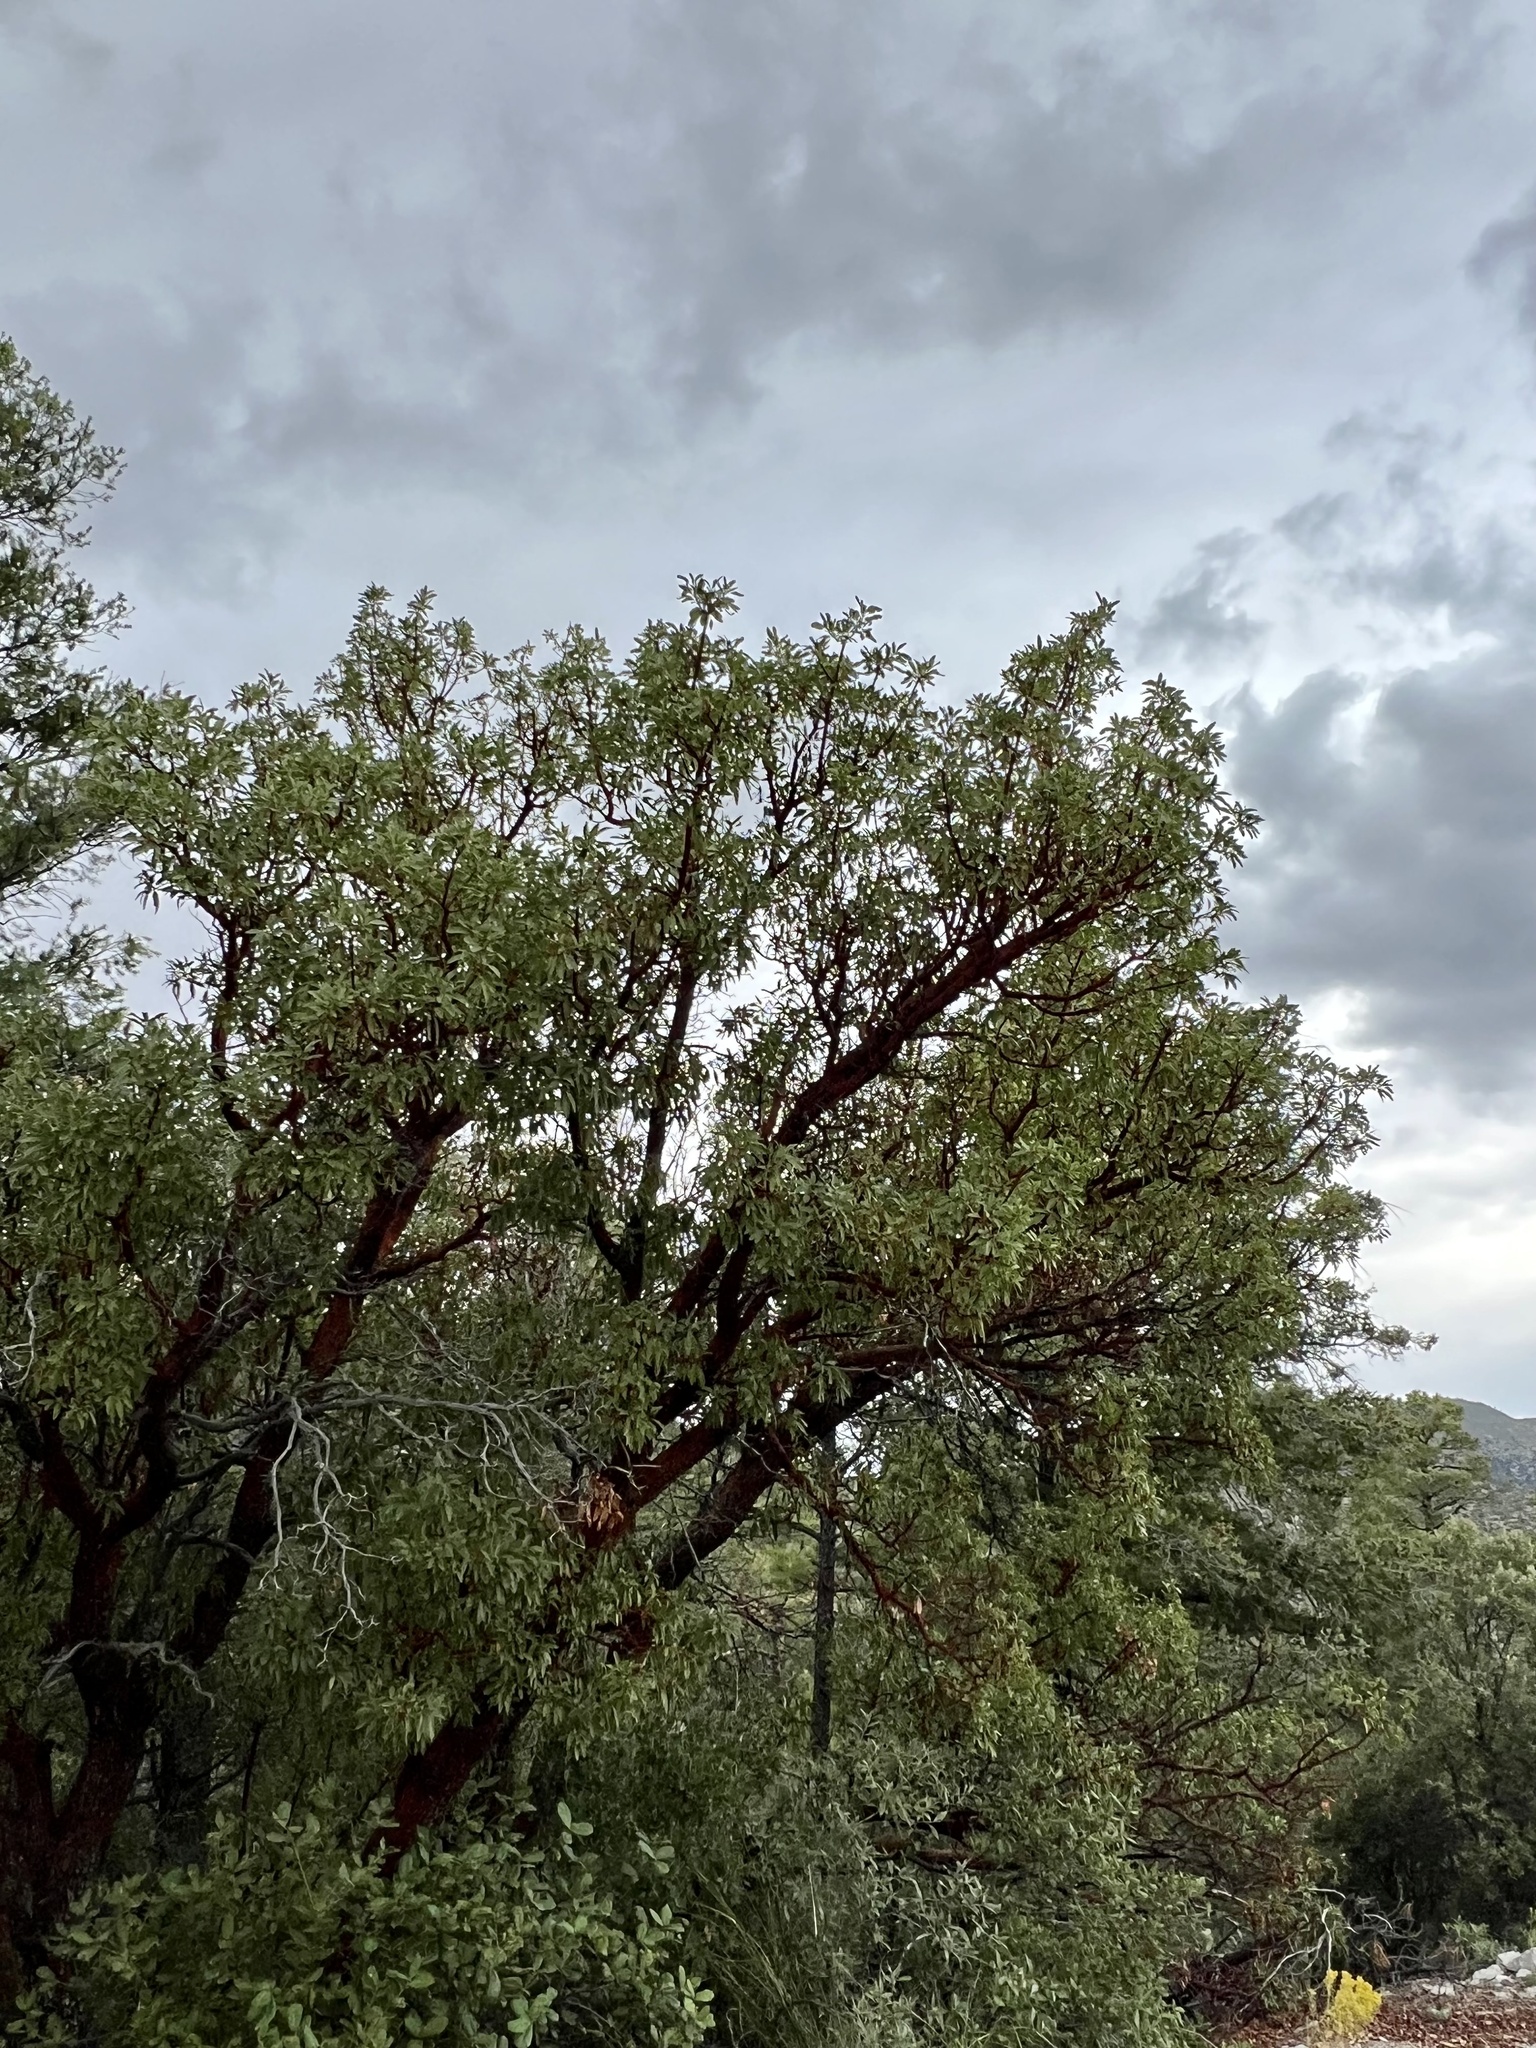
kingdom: Plantae
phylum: Tracheophyta
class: Magnoliopsida
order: Ericales
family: Ericaceae
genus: Arbutus
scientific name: Arbutus arizonica
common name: Arizona madrone
